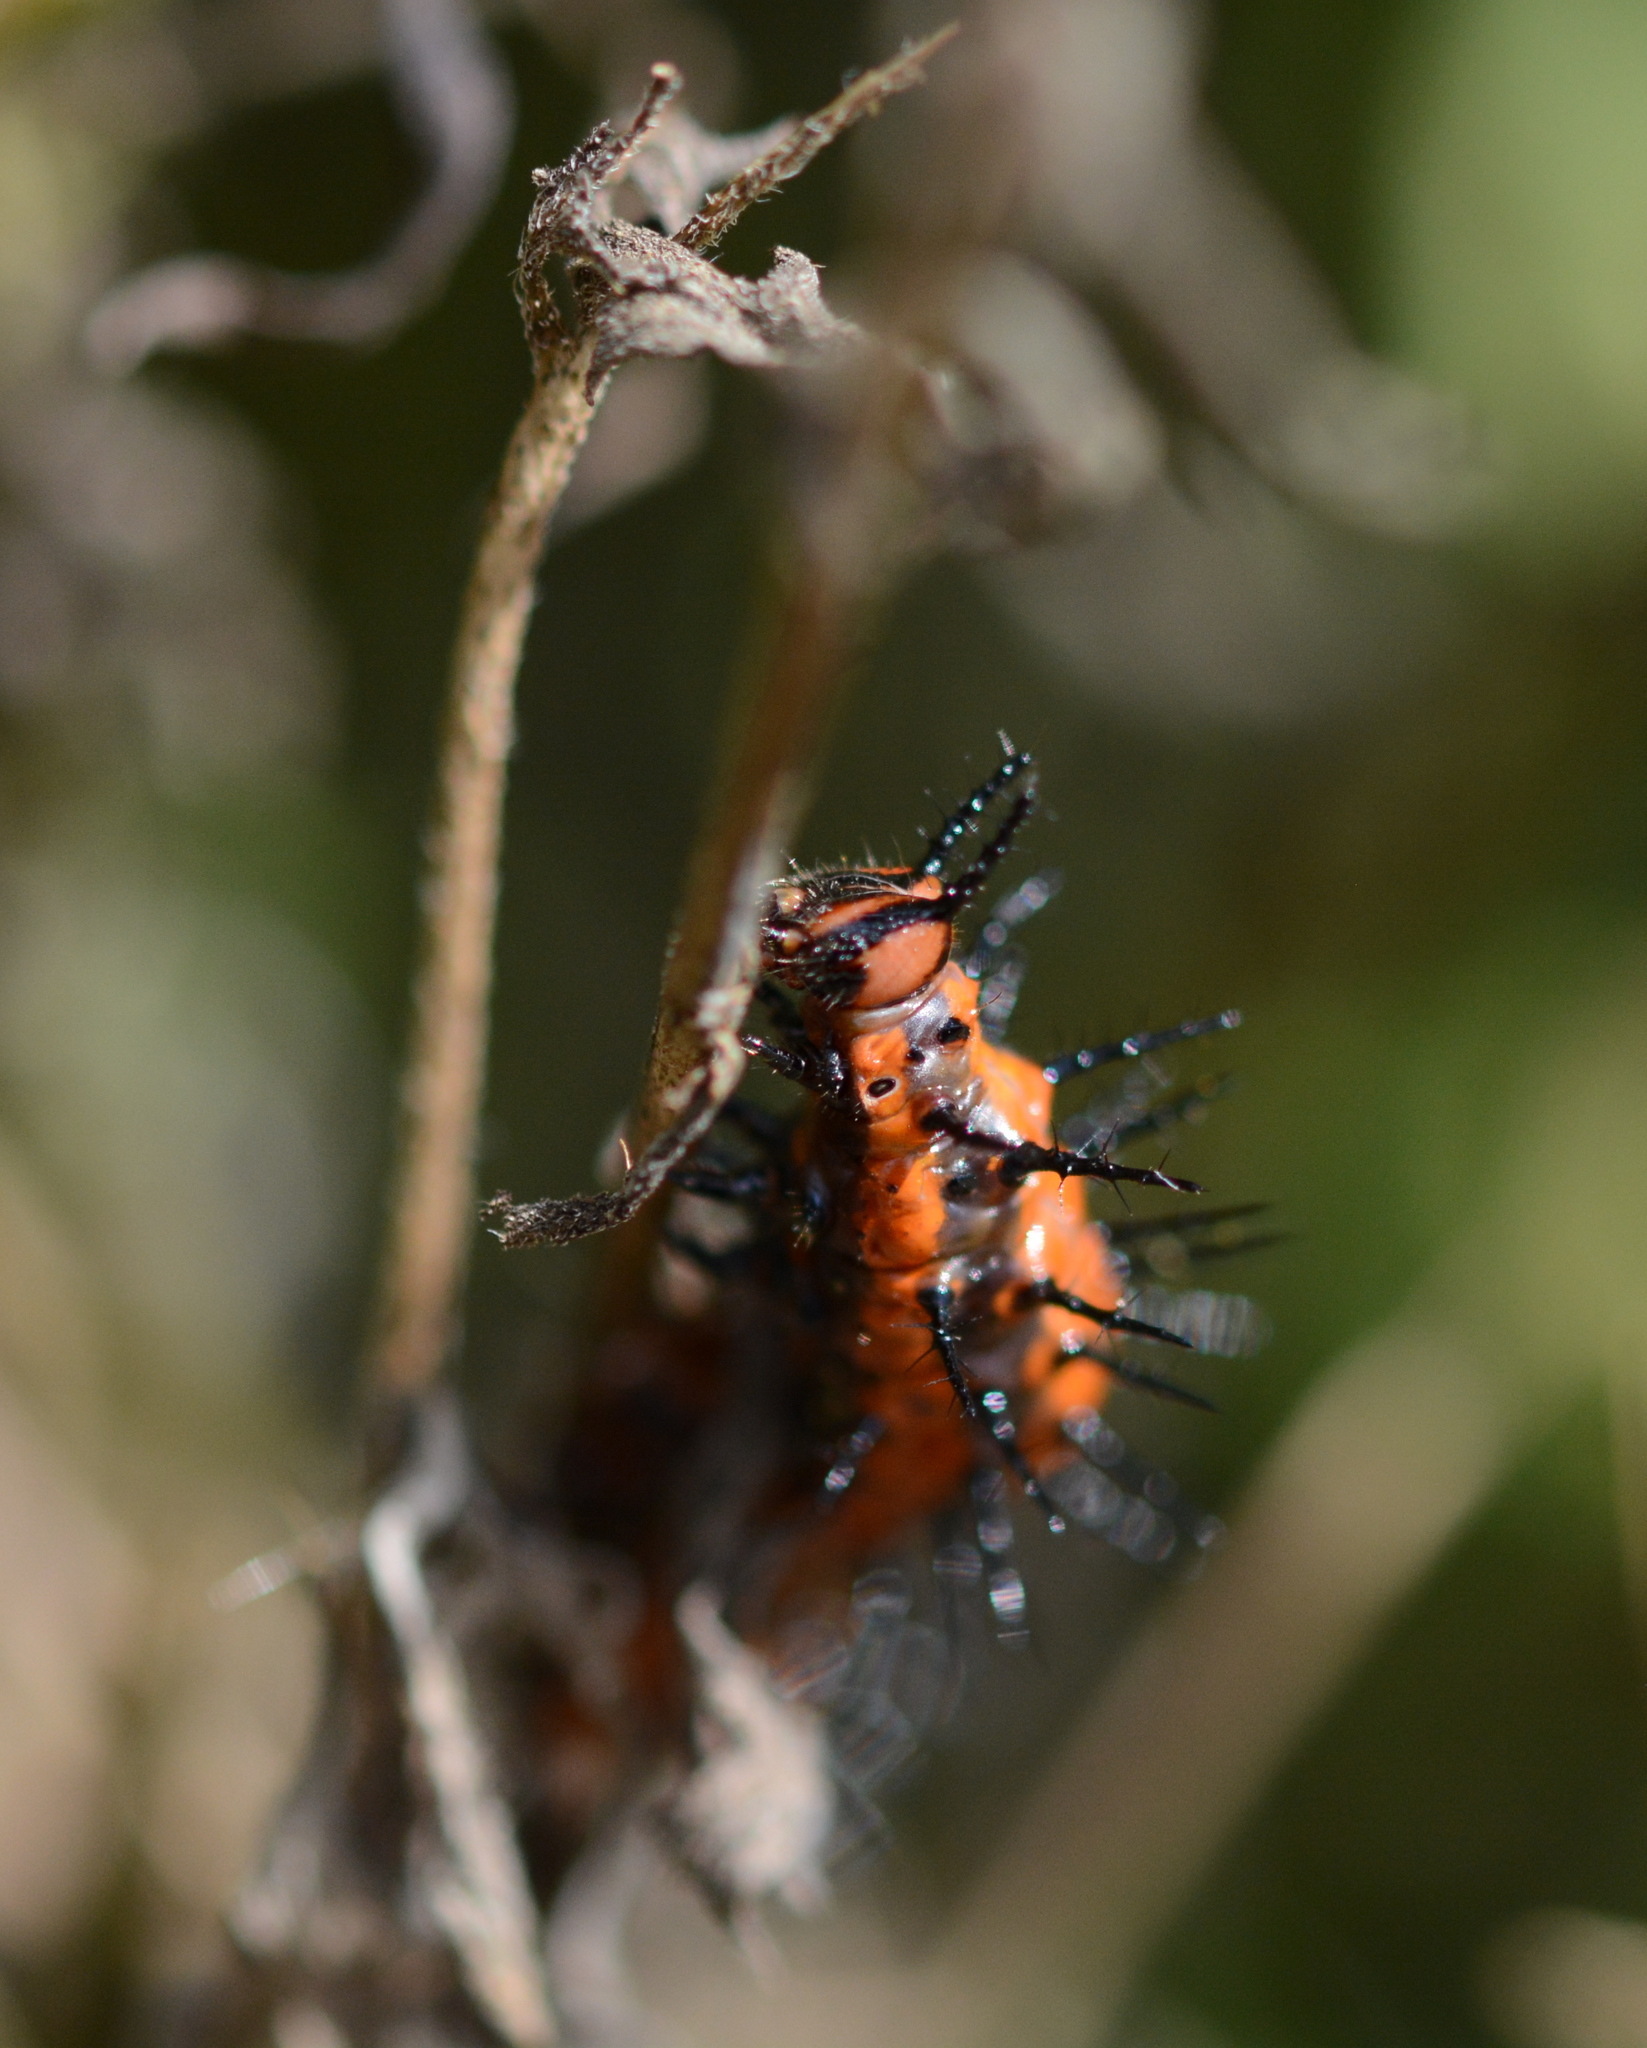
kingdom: Animalia
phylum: Arthropoda
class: Insecta
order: Lepidoptera
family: Nymphalidae
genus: Dione
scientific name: Dione vanillae
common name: Gulf fritillary
